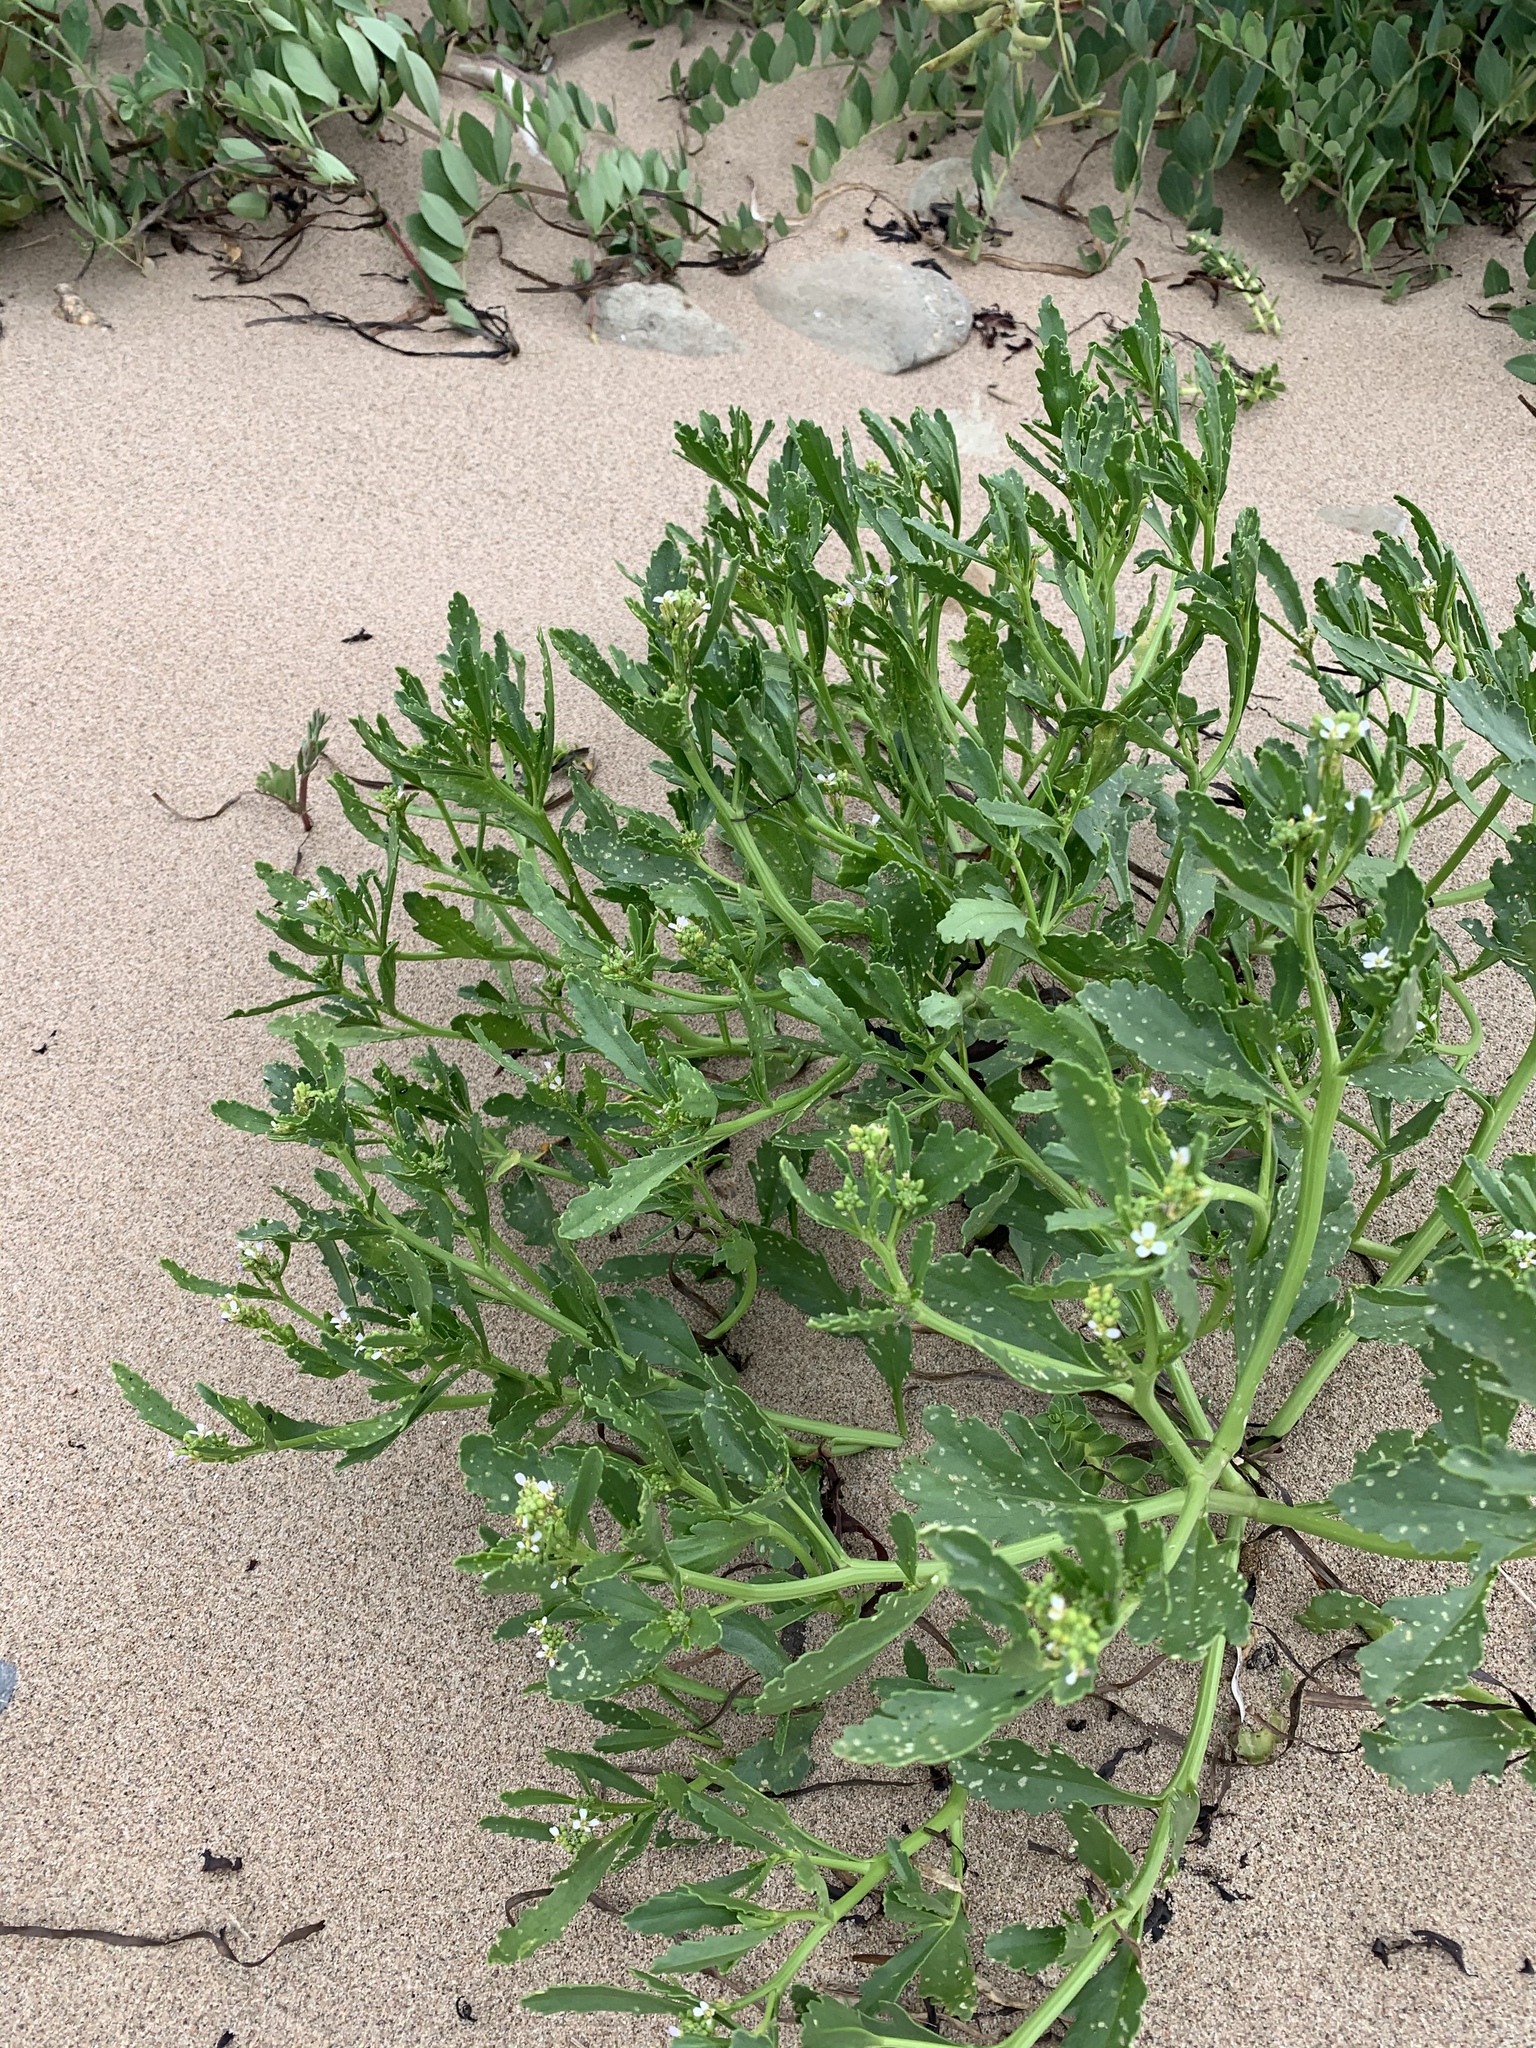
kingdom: Plantae
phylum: Tracheophyta
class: Magnoliopsida
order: Brassicales
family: Brassicaceae
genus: Cakile
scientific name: Cakile edentula
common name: American sea rocket
